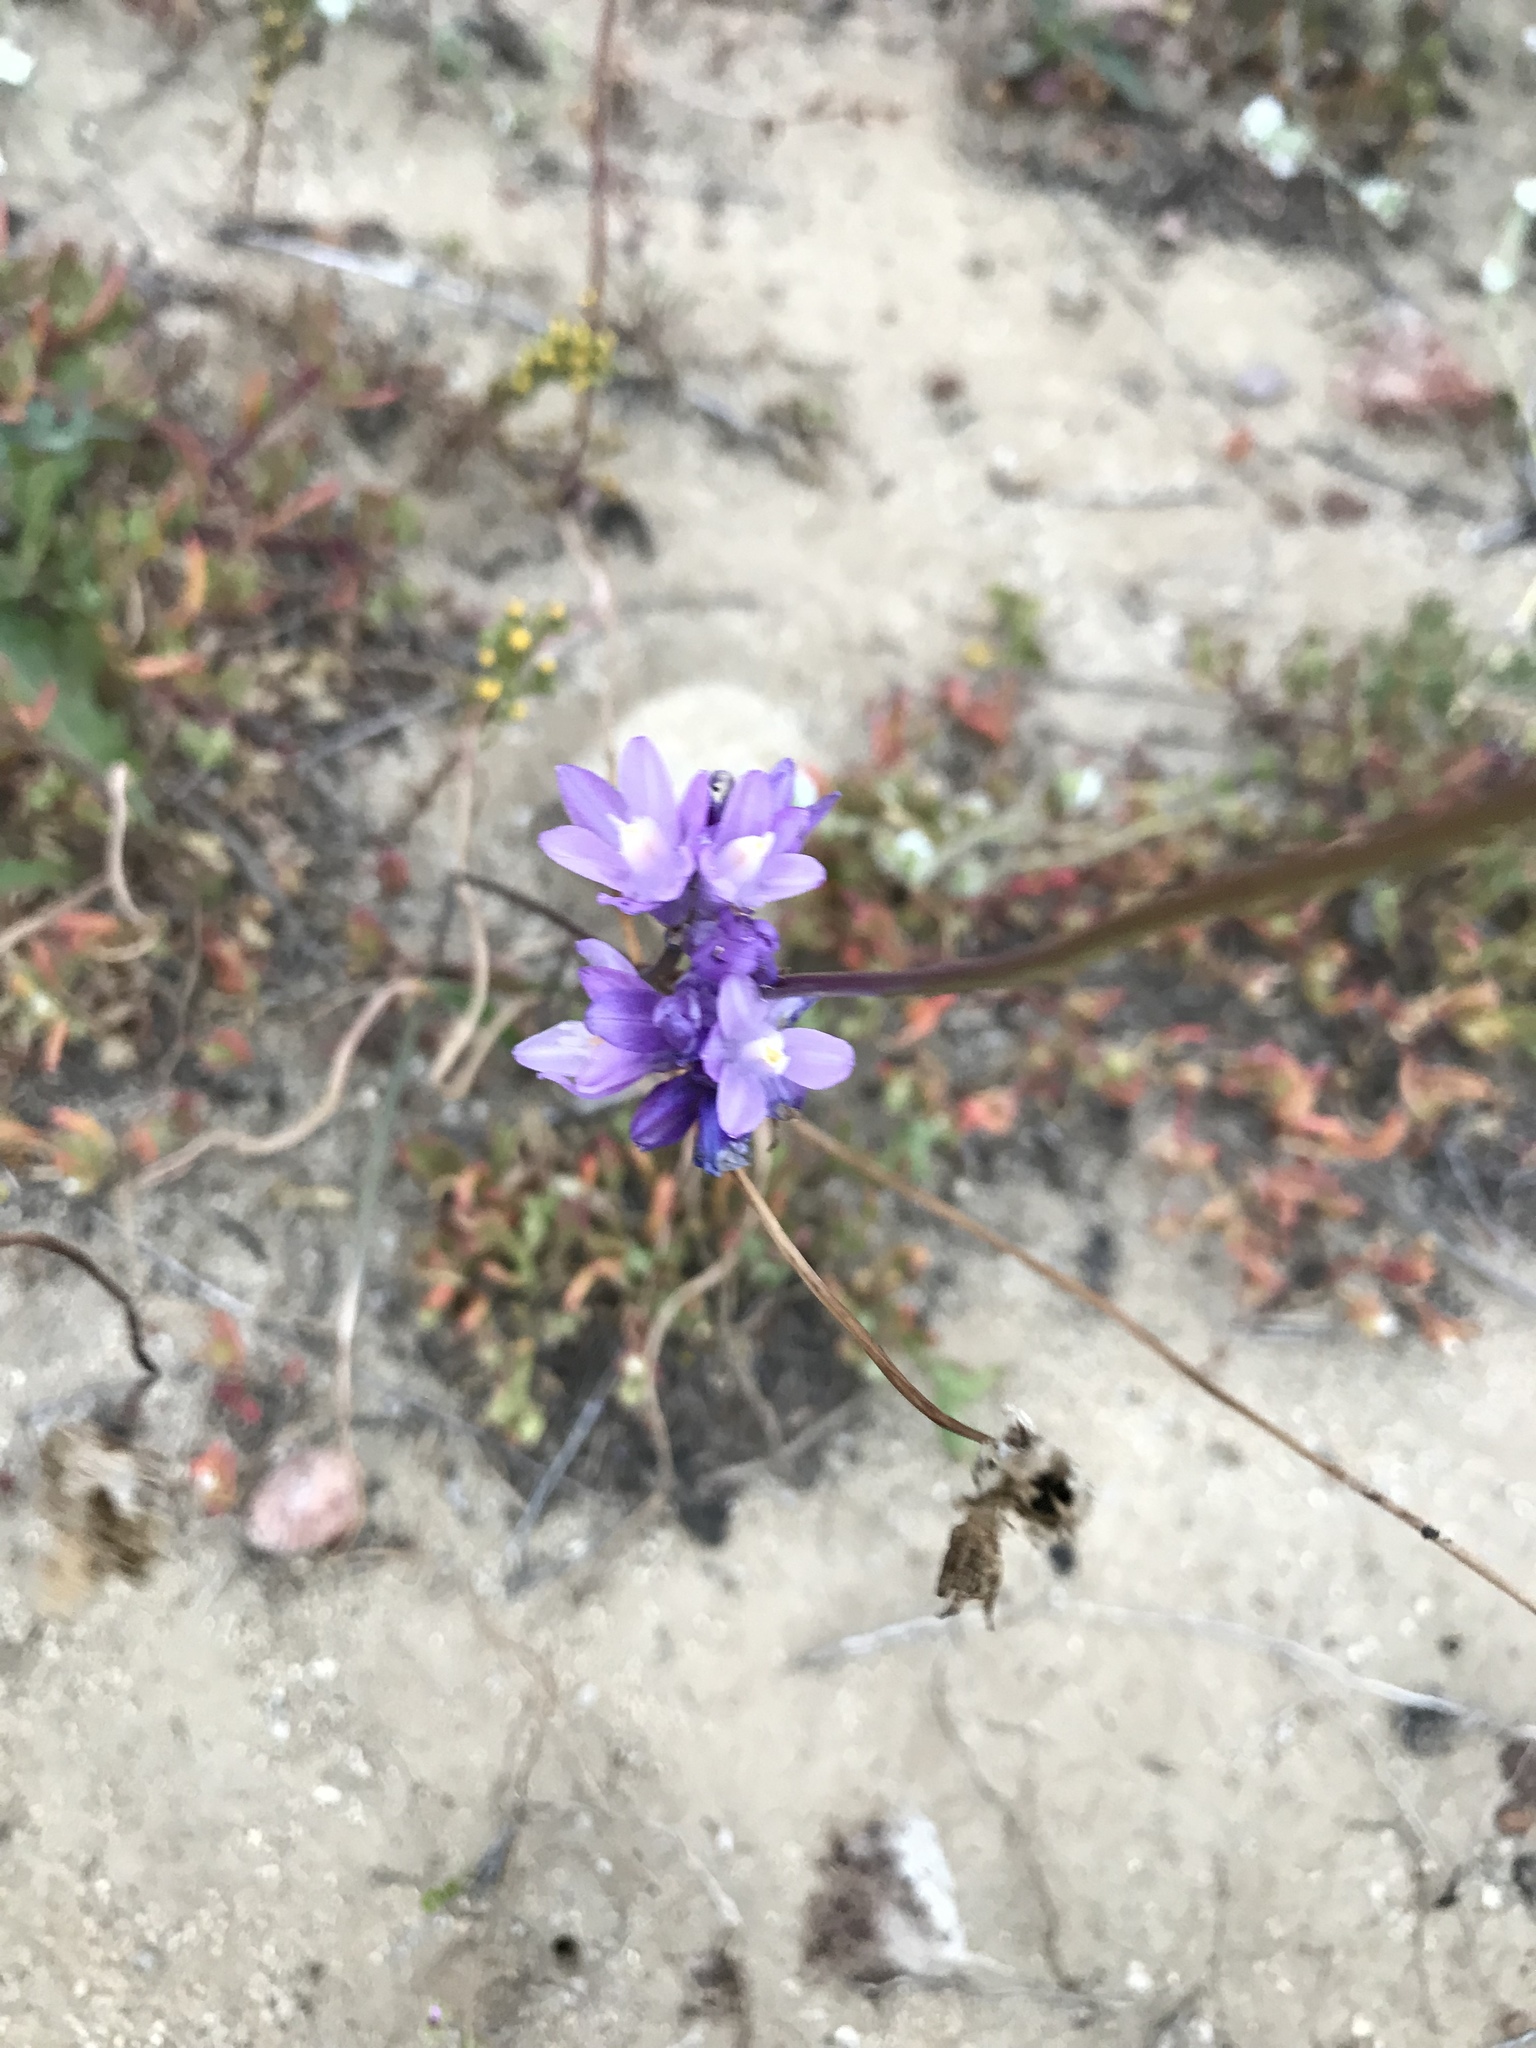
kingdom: Plantae
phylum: Tracheophyta
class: Liliopsida
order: Asparagales
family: Asparagaceae
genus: Dipterostemon
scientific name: Dipterostemon capitatus
